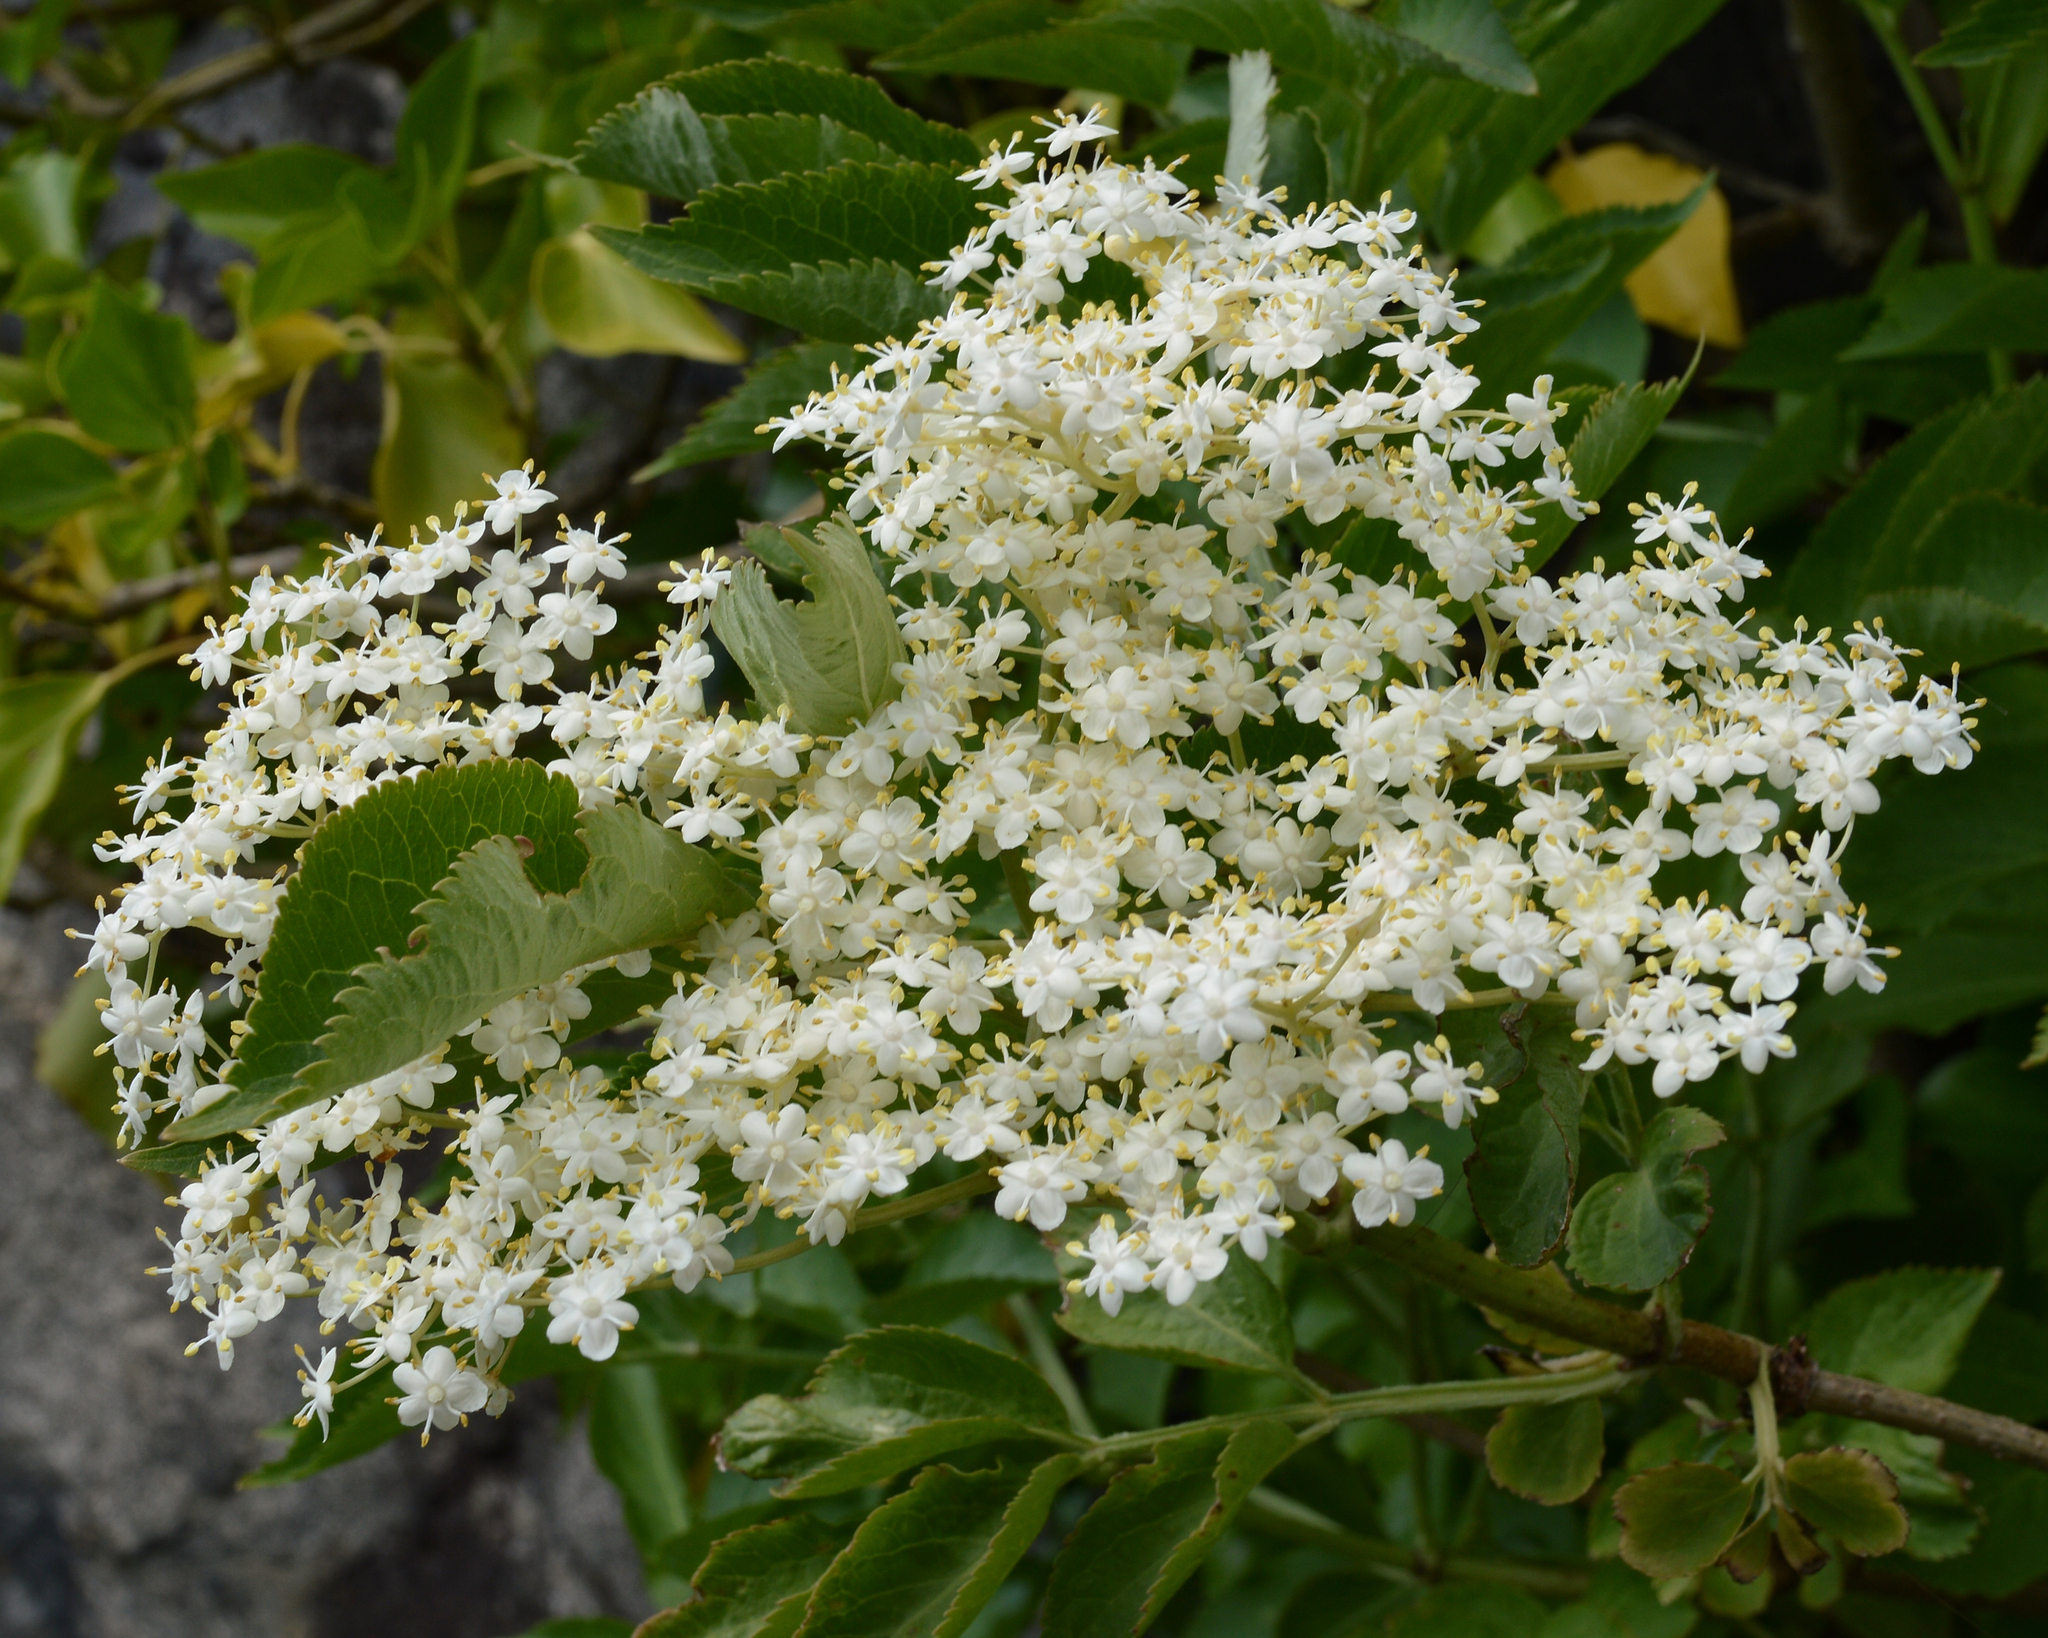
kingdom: Plantae
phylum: Tracheophyta
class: Magnoliopsida
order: Dipsacales
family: Viburnaceae
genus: Sambucus
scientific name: Sambucus nigra
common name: Elder
